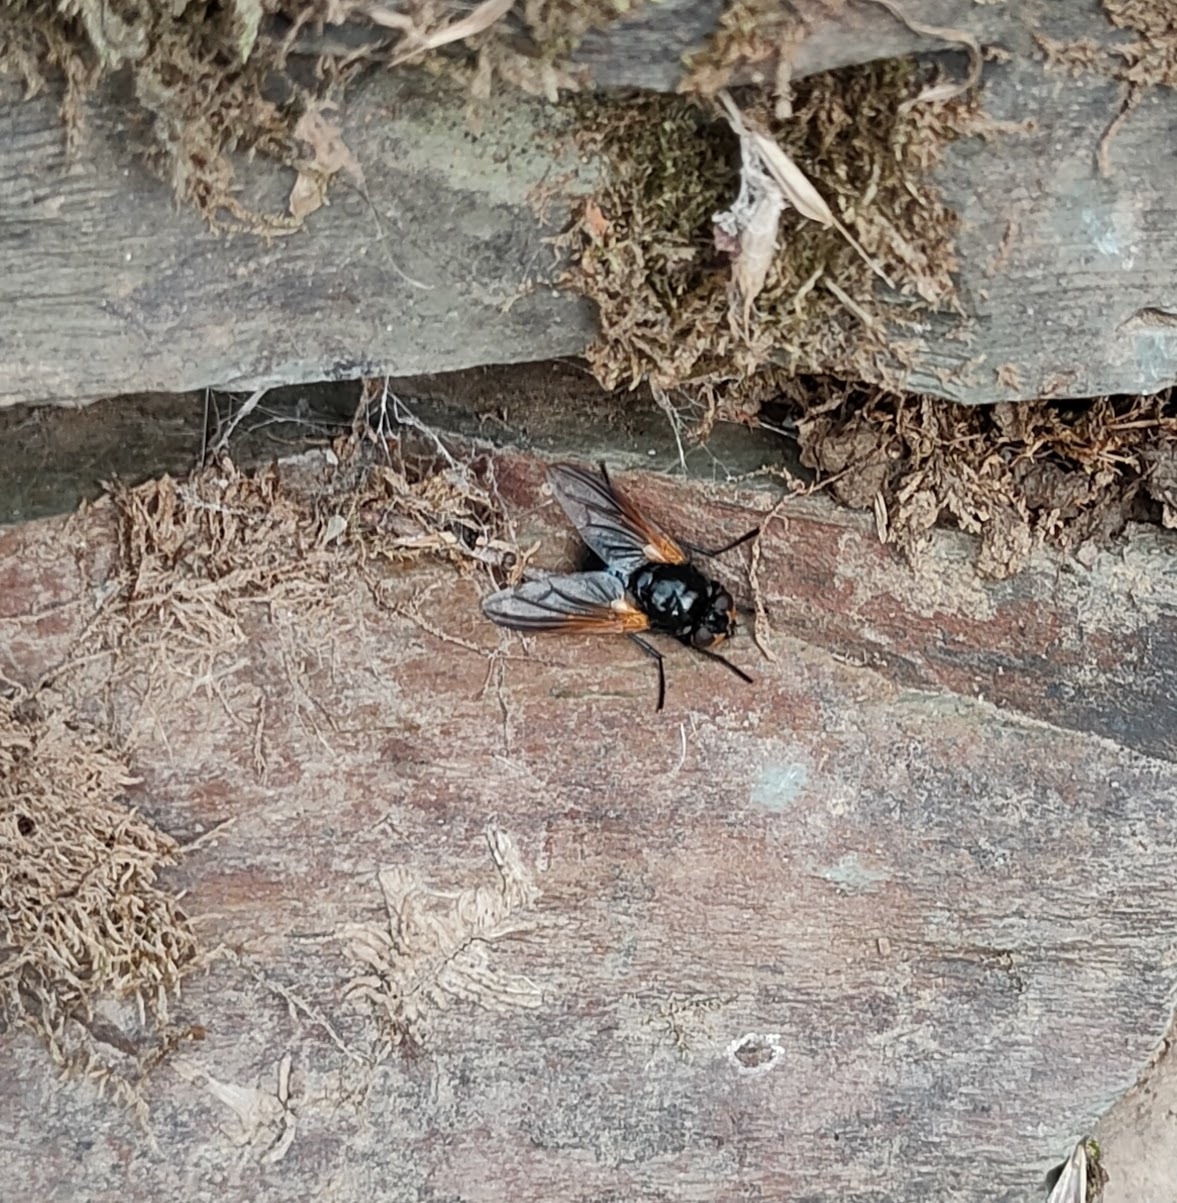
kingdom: Animalia
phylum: Arthropoda
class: Insecta
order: Diptera
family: Muscidae
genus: Mesembrina
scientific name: Mesembrina meridiana
